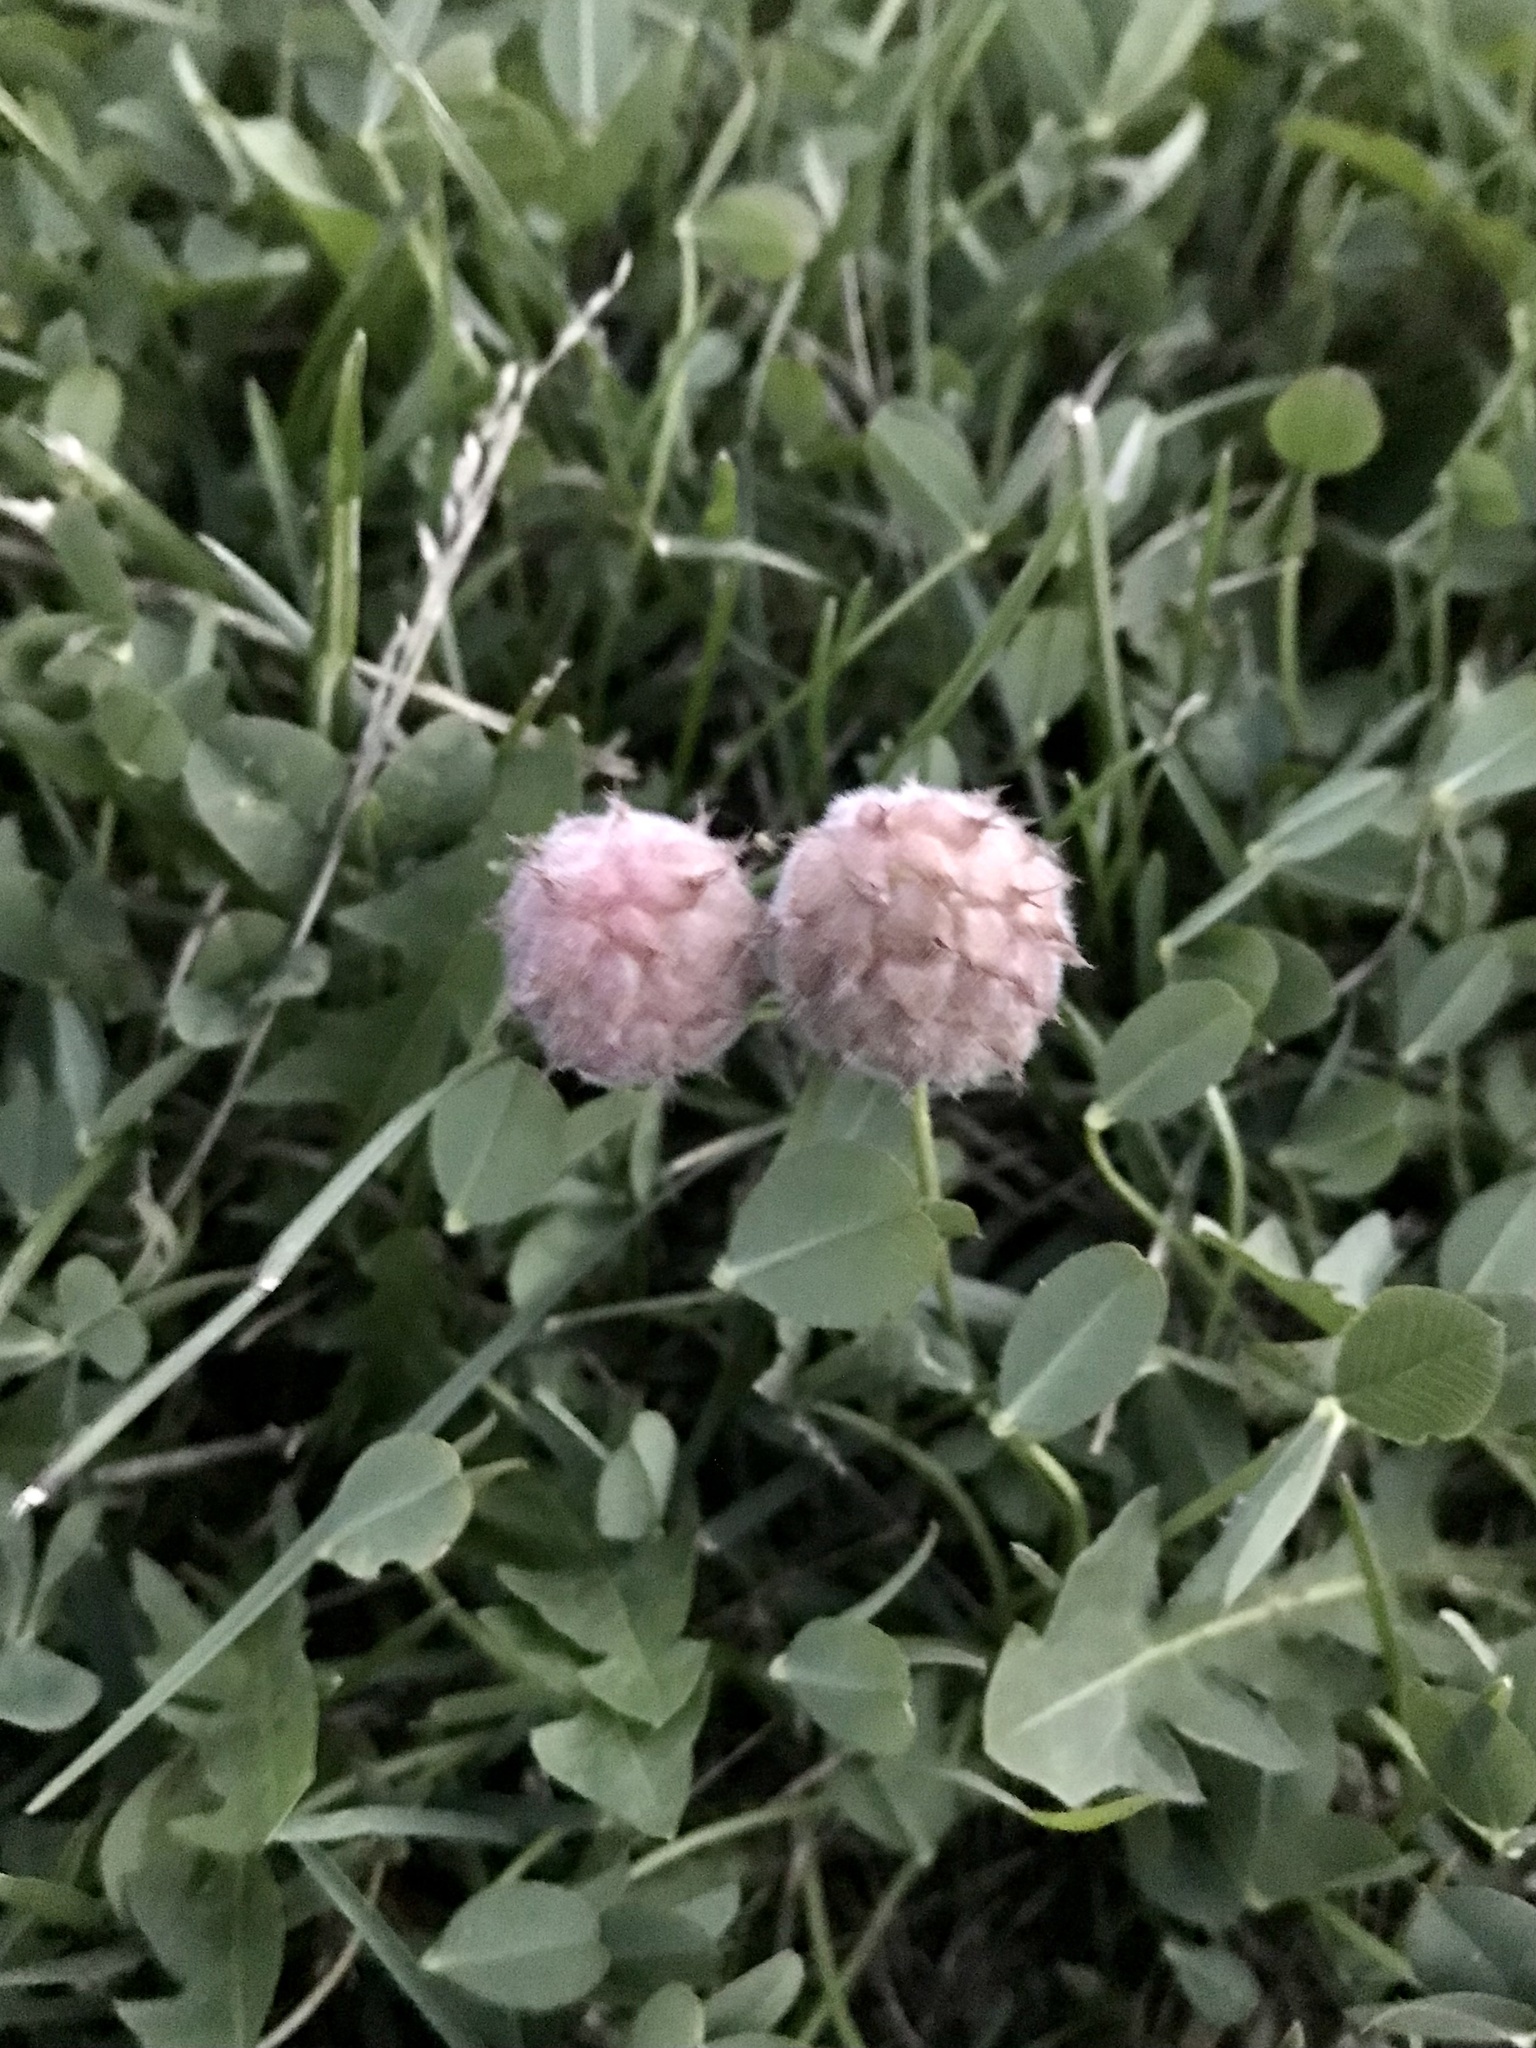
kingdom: Plantae
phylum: Tracheophyta
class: Magnoliopsida
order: Fabales
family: Fabaceae
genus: Trifolium
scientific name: Trifolium fragiferum
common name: Strawberry clover
